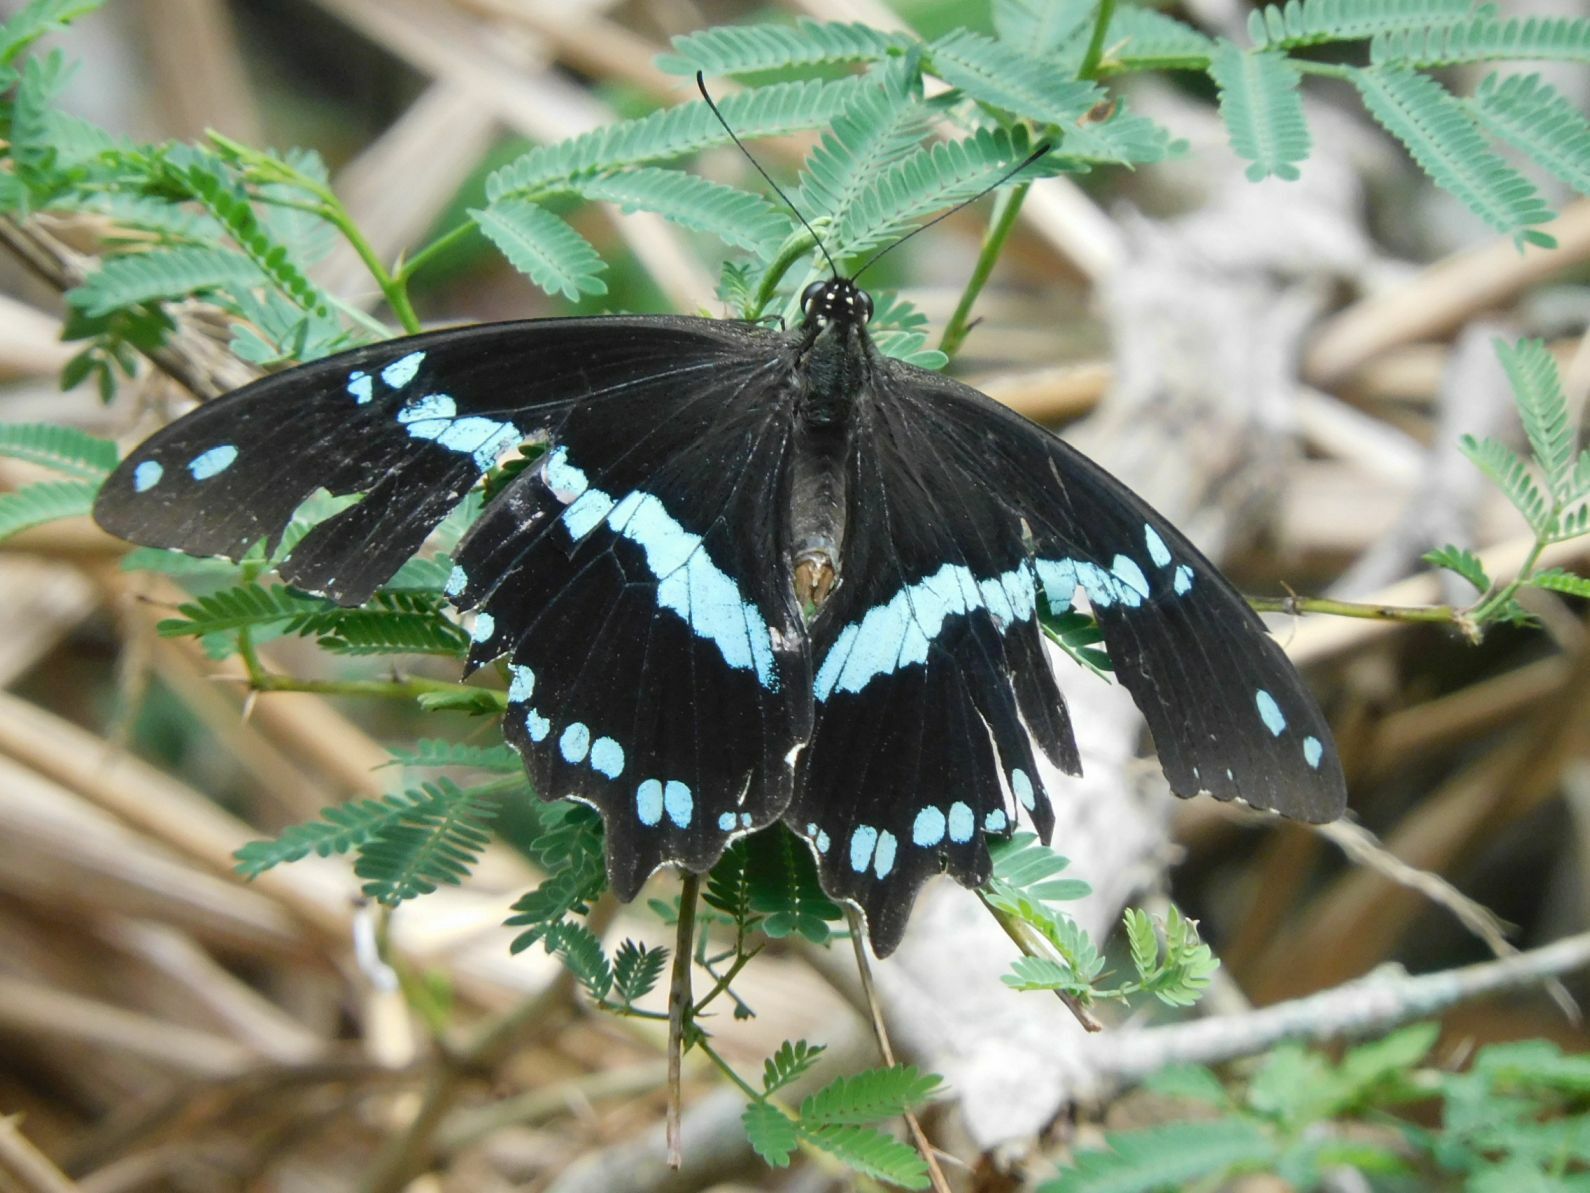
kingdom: Animalia
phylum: Arthropoda
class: Insecta
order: Lepidoptera
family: Papilionidae
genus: Papilio
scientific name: Papilio nireus
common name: Greenbanded swallowtail
